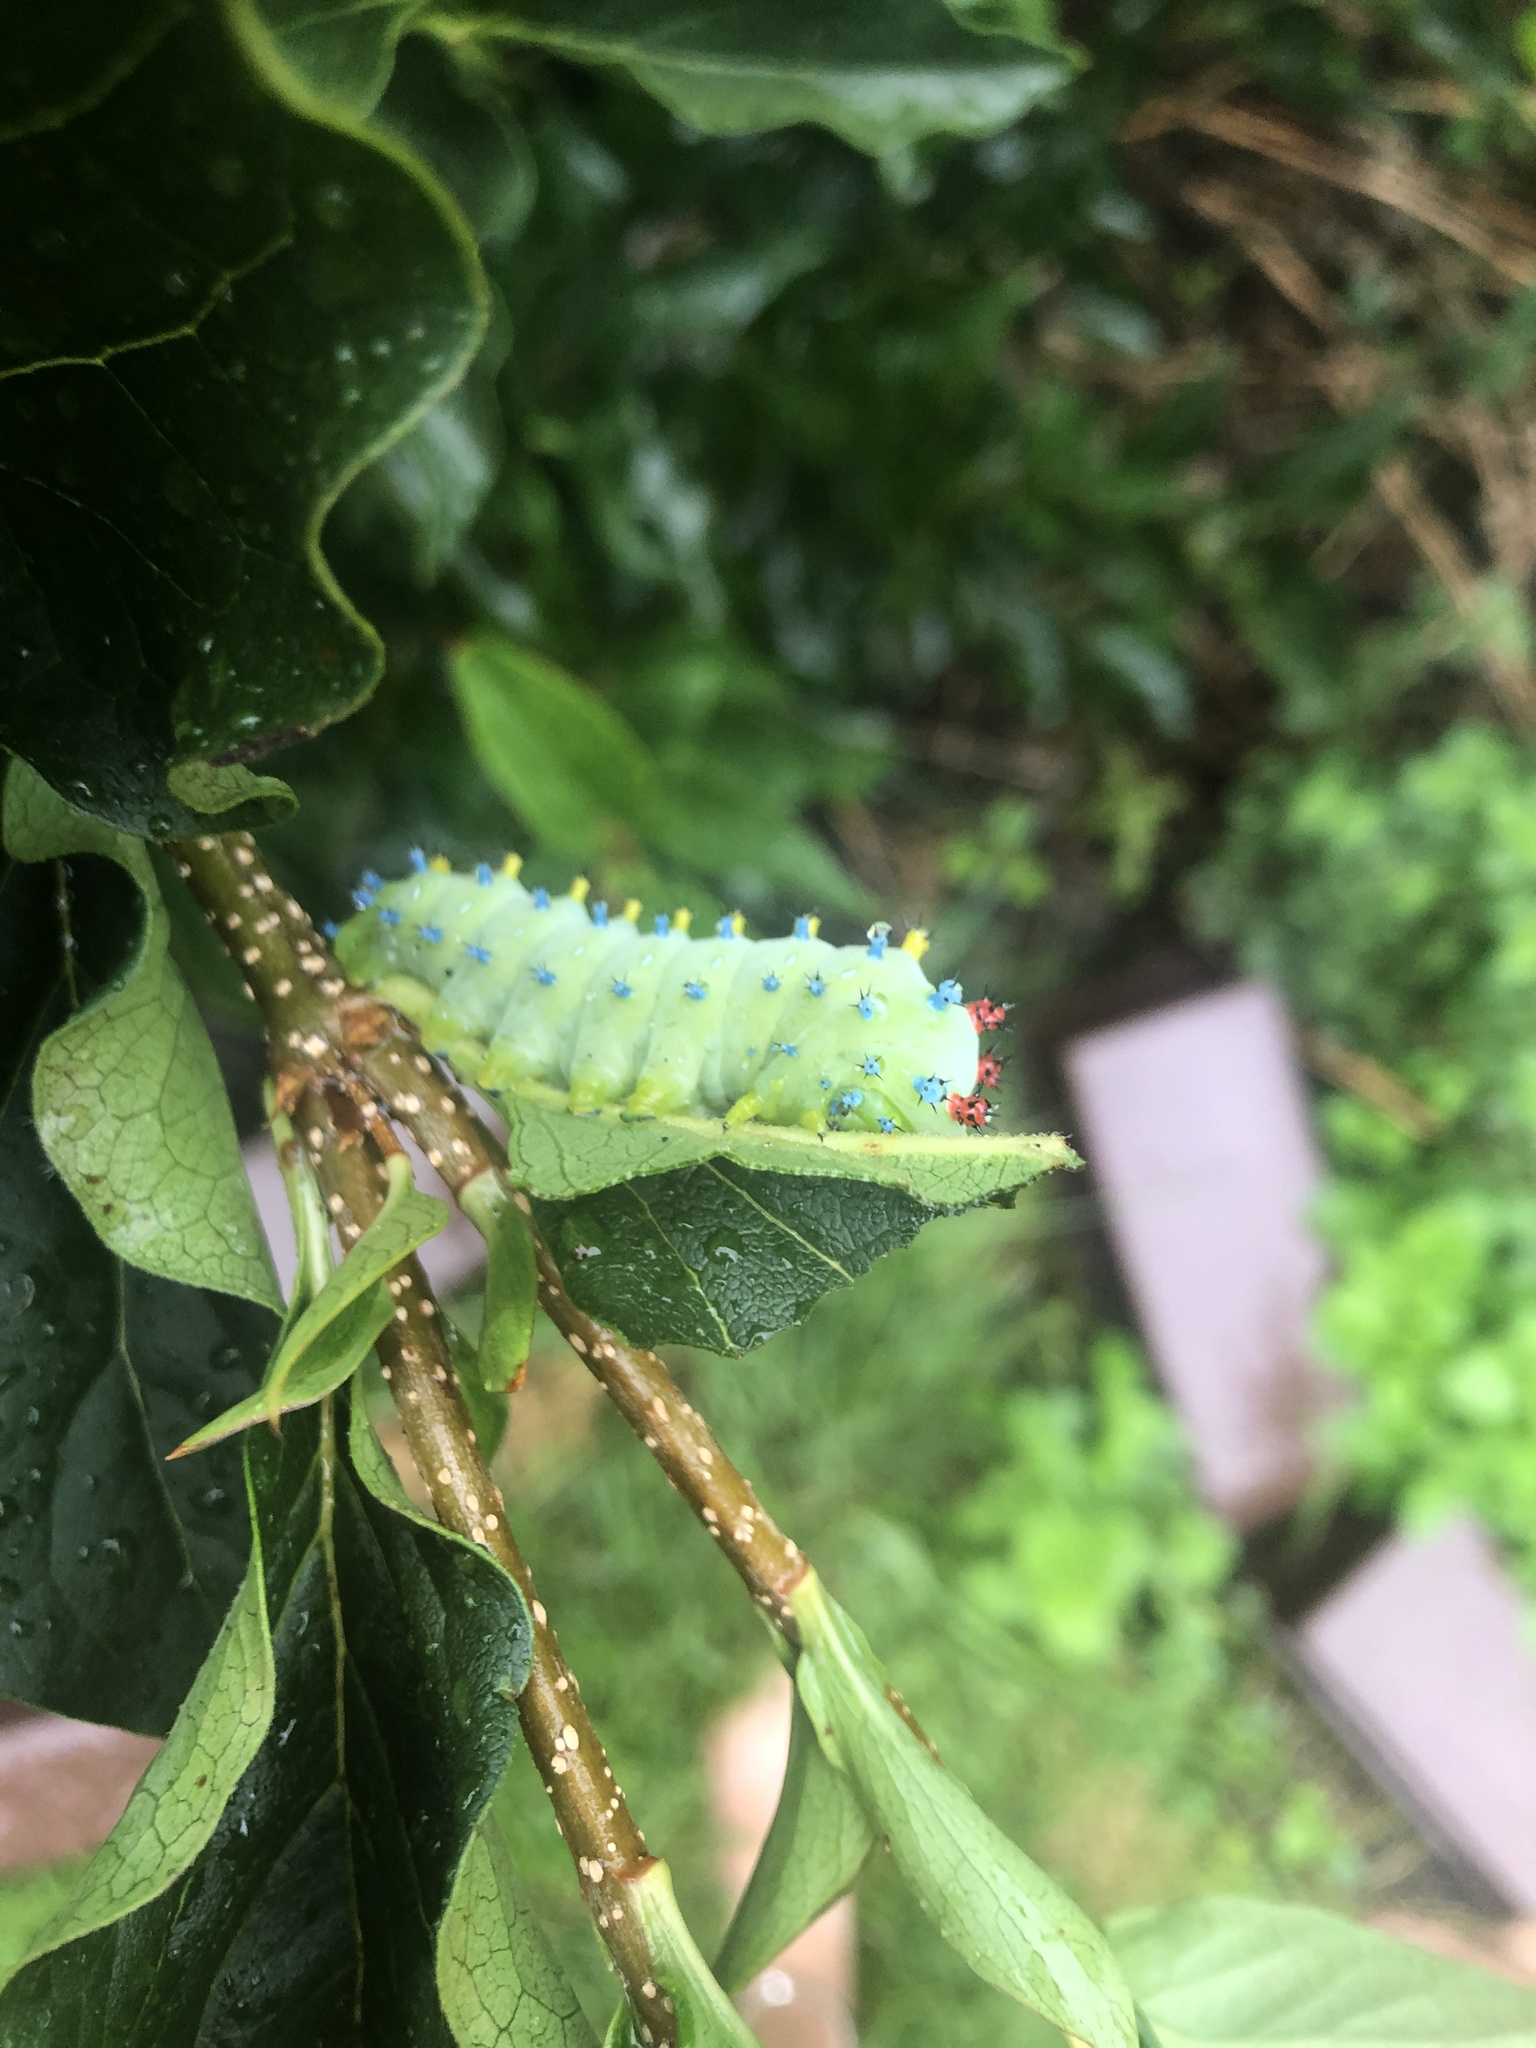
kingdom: Animalia
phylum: Arthropoda
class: Insecta
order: Lepidoptera
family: Saturniidae
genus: Hyalophora
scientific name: Hyalophora cecropia
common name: Cecropia silkmoth
